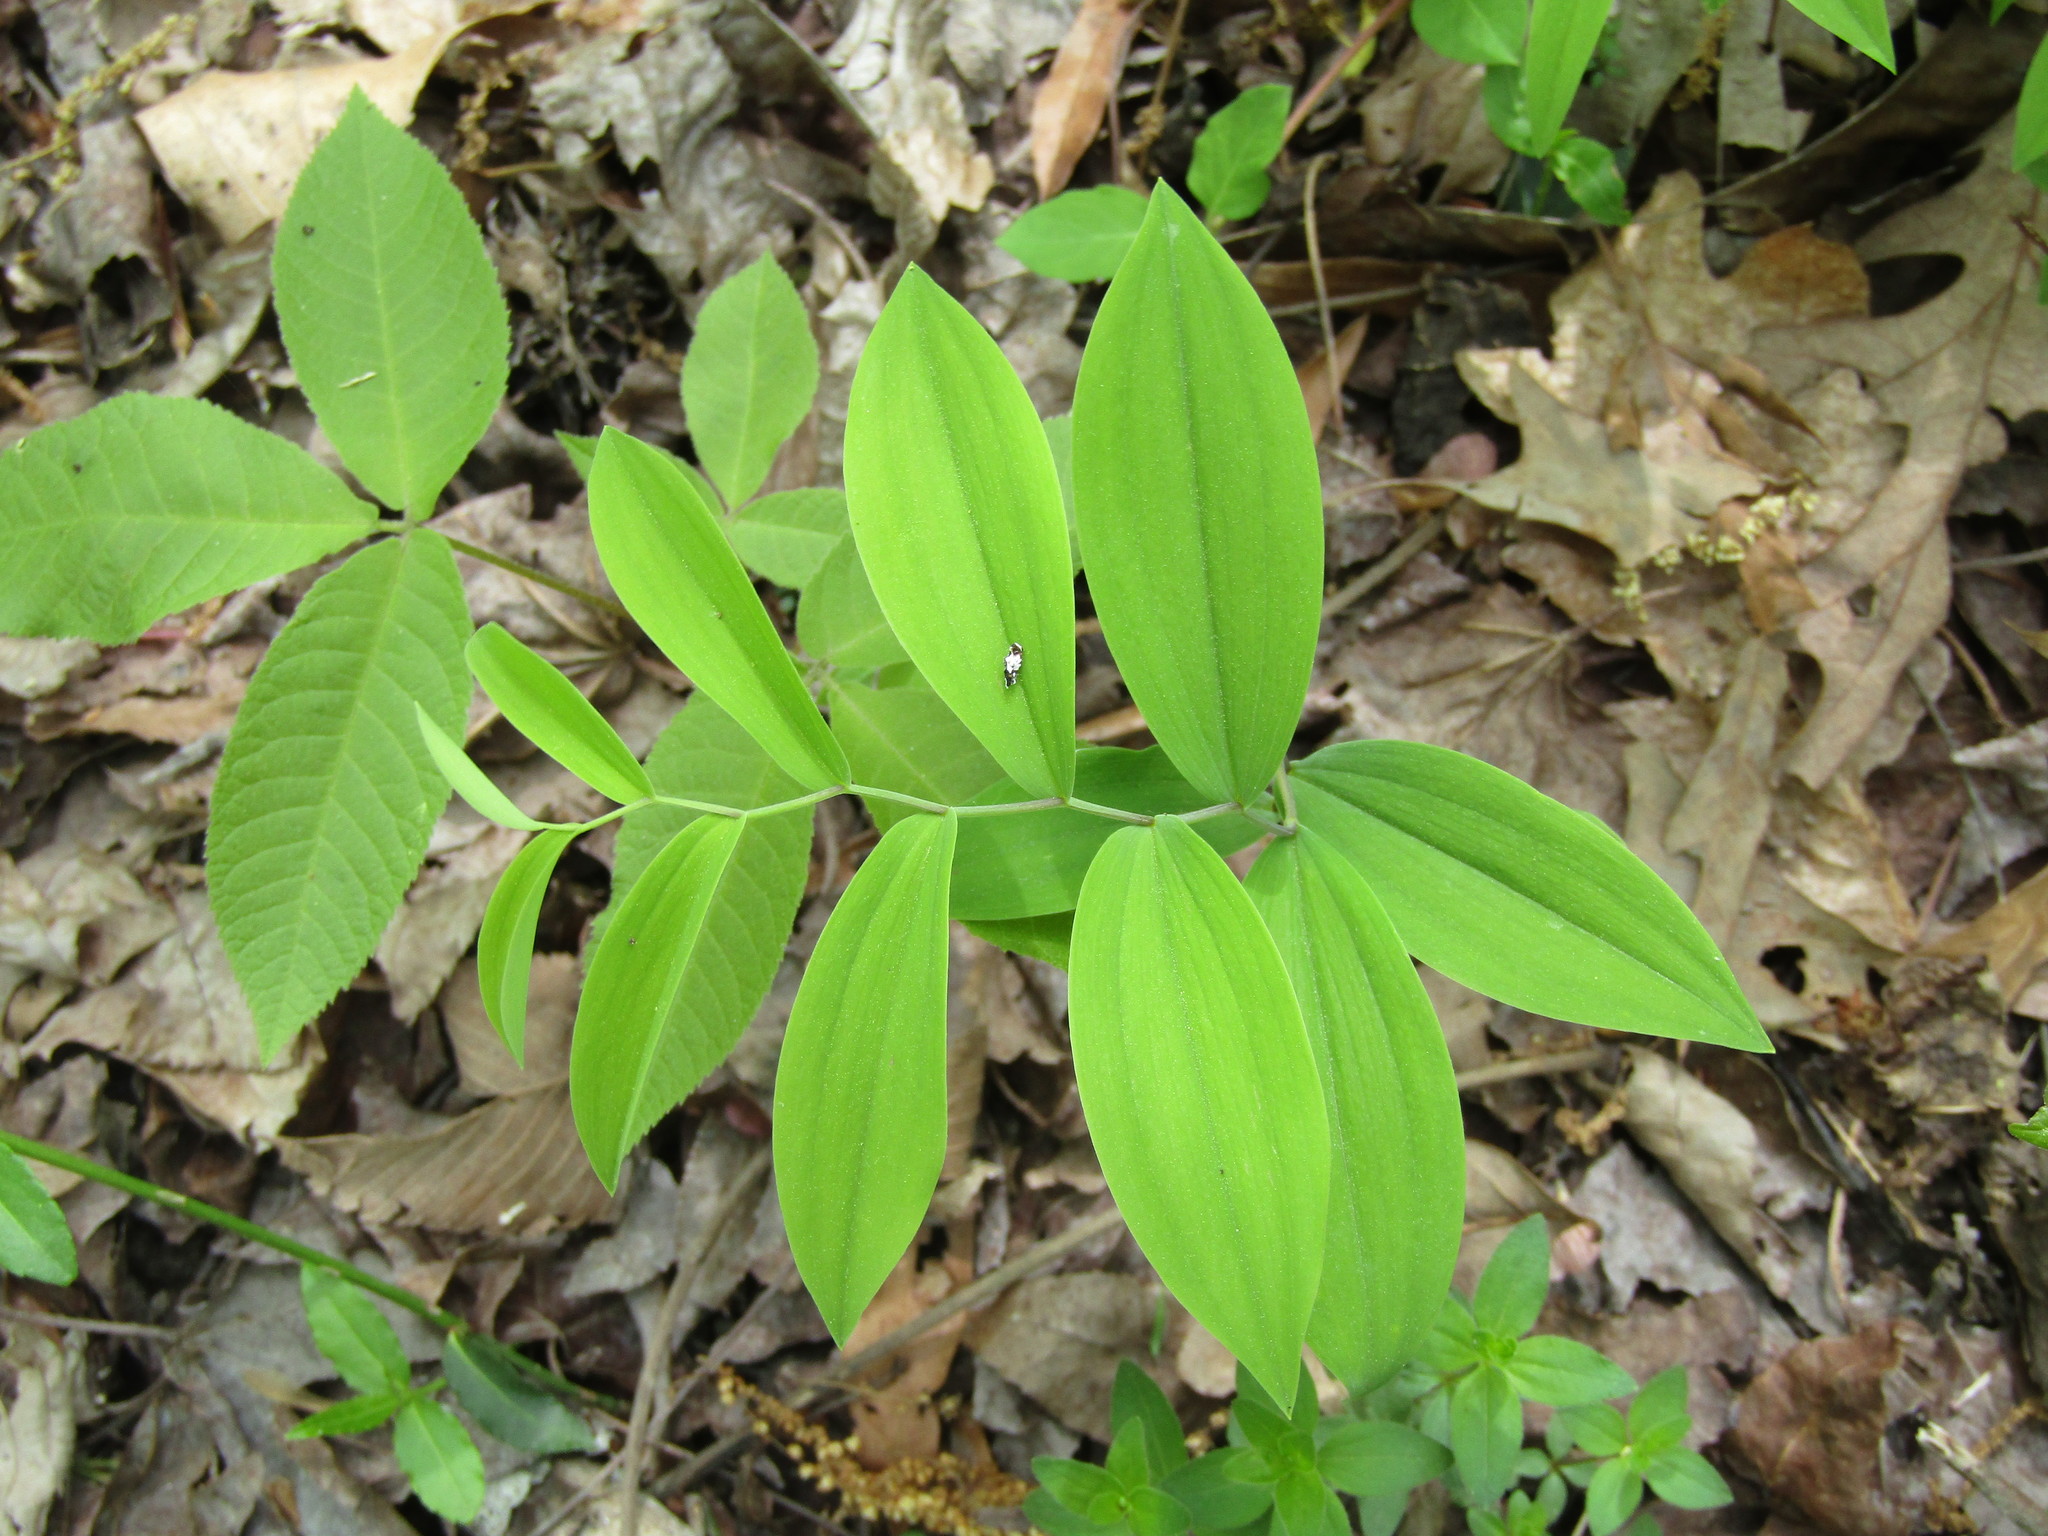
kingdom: Plantae
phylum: Tracheophyta
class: Liliopsida
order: Liliales
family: Colchicaceae
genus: Uvularia
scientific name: Uvularia sessilifolia
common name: Straw-lily
